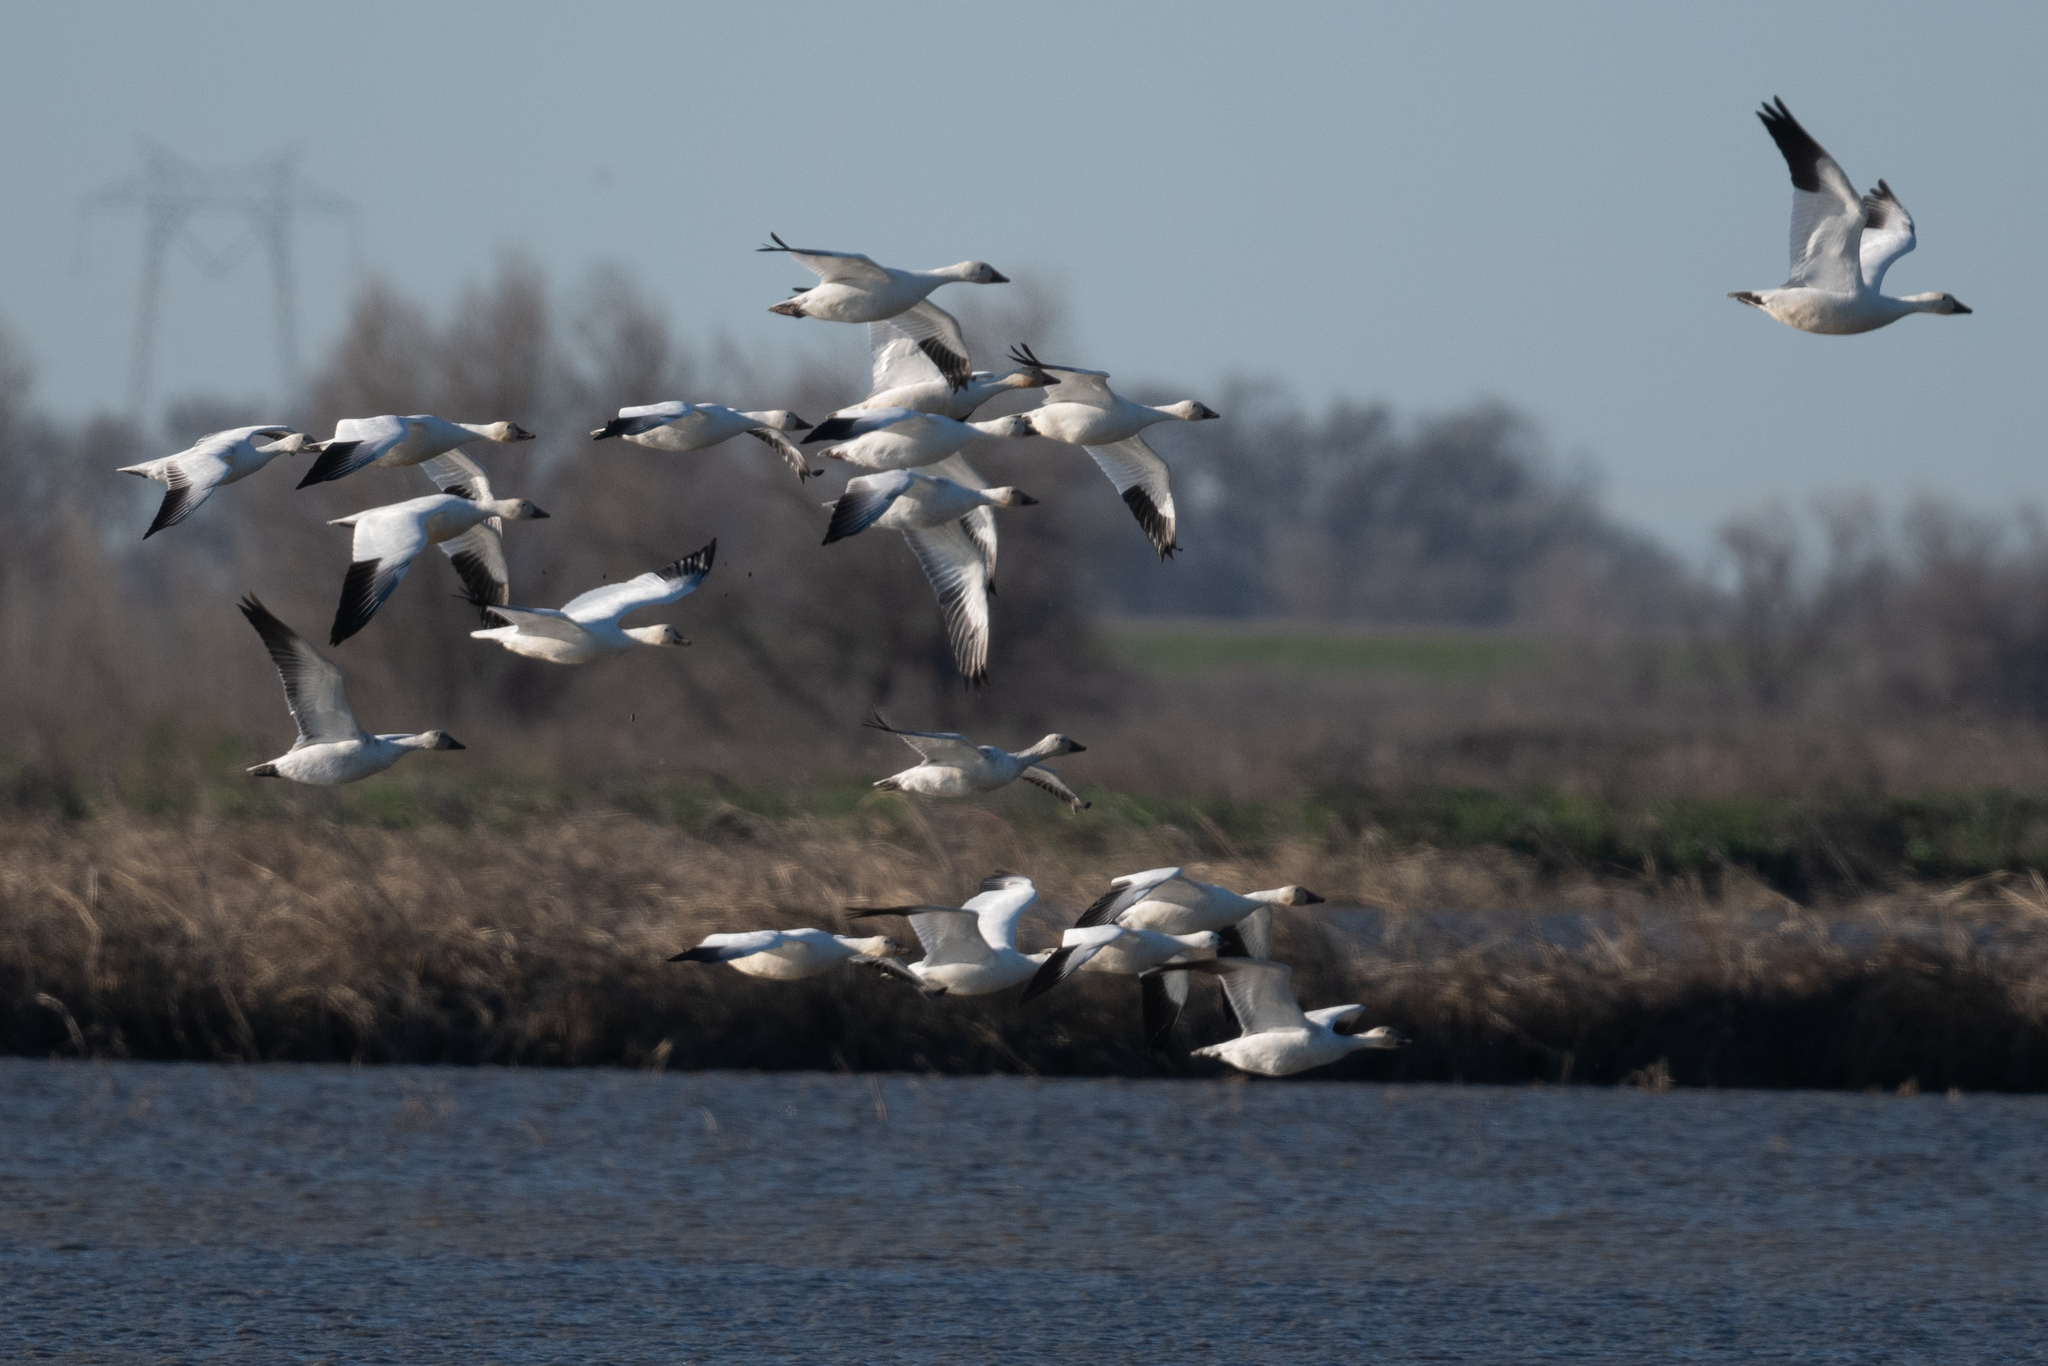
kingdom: Animalia
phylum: Chordata
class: Aves
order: Anseriformes
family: Anatidae
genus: Anser
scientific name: Anser caerulescens
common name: Snow goose
